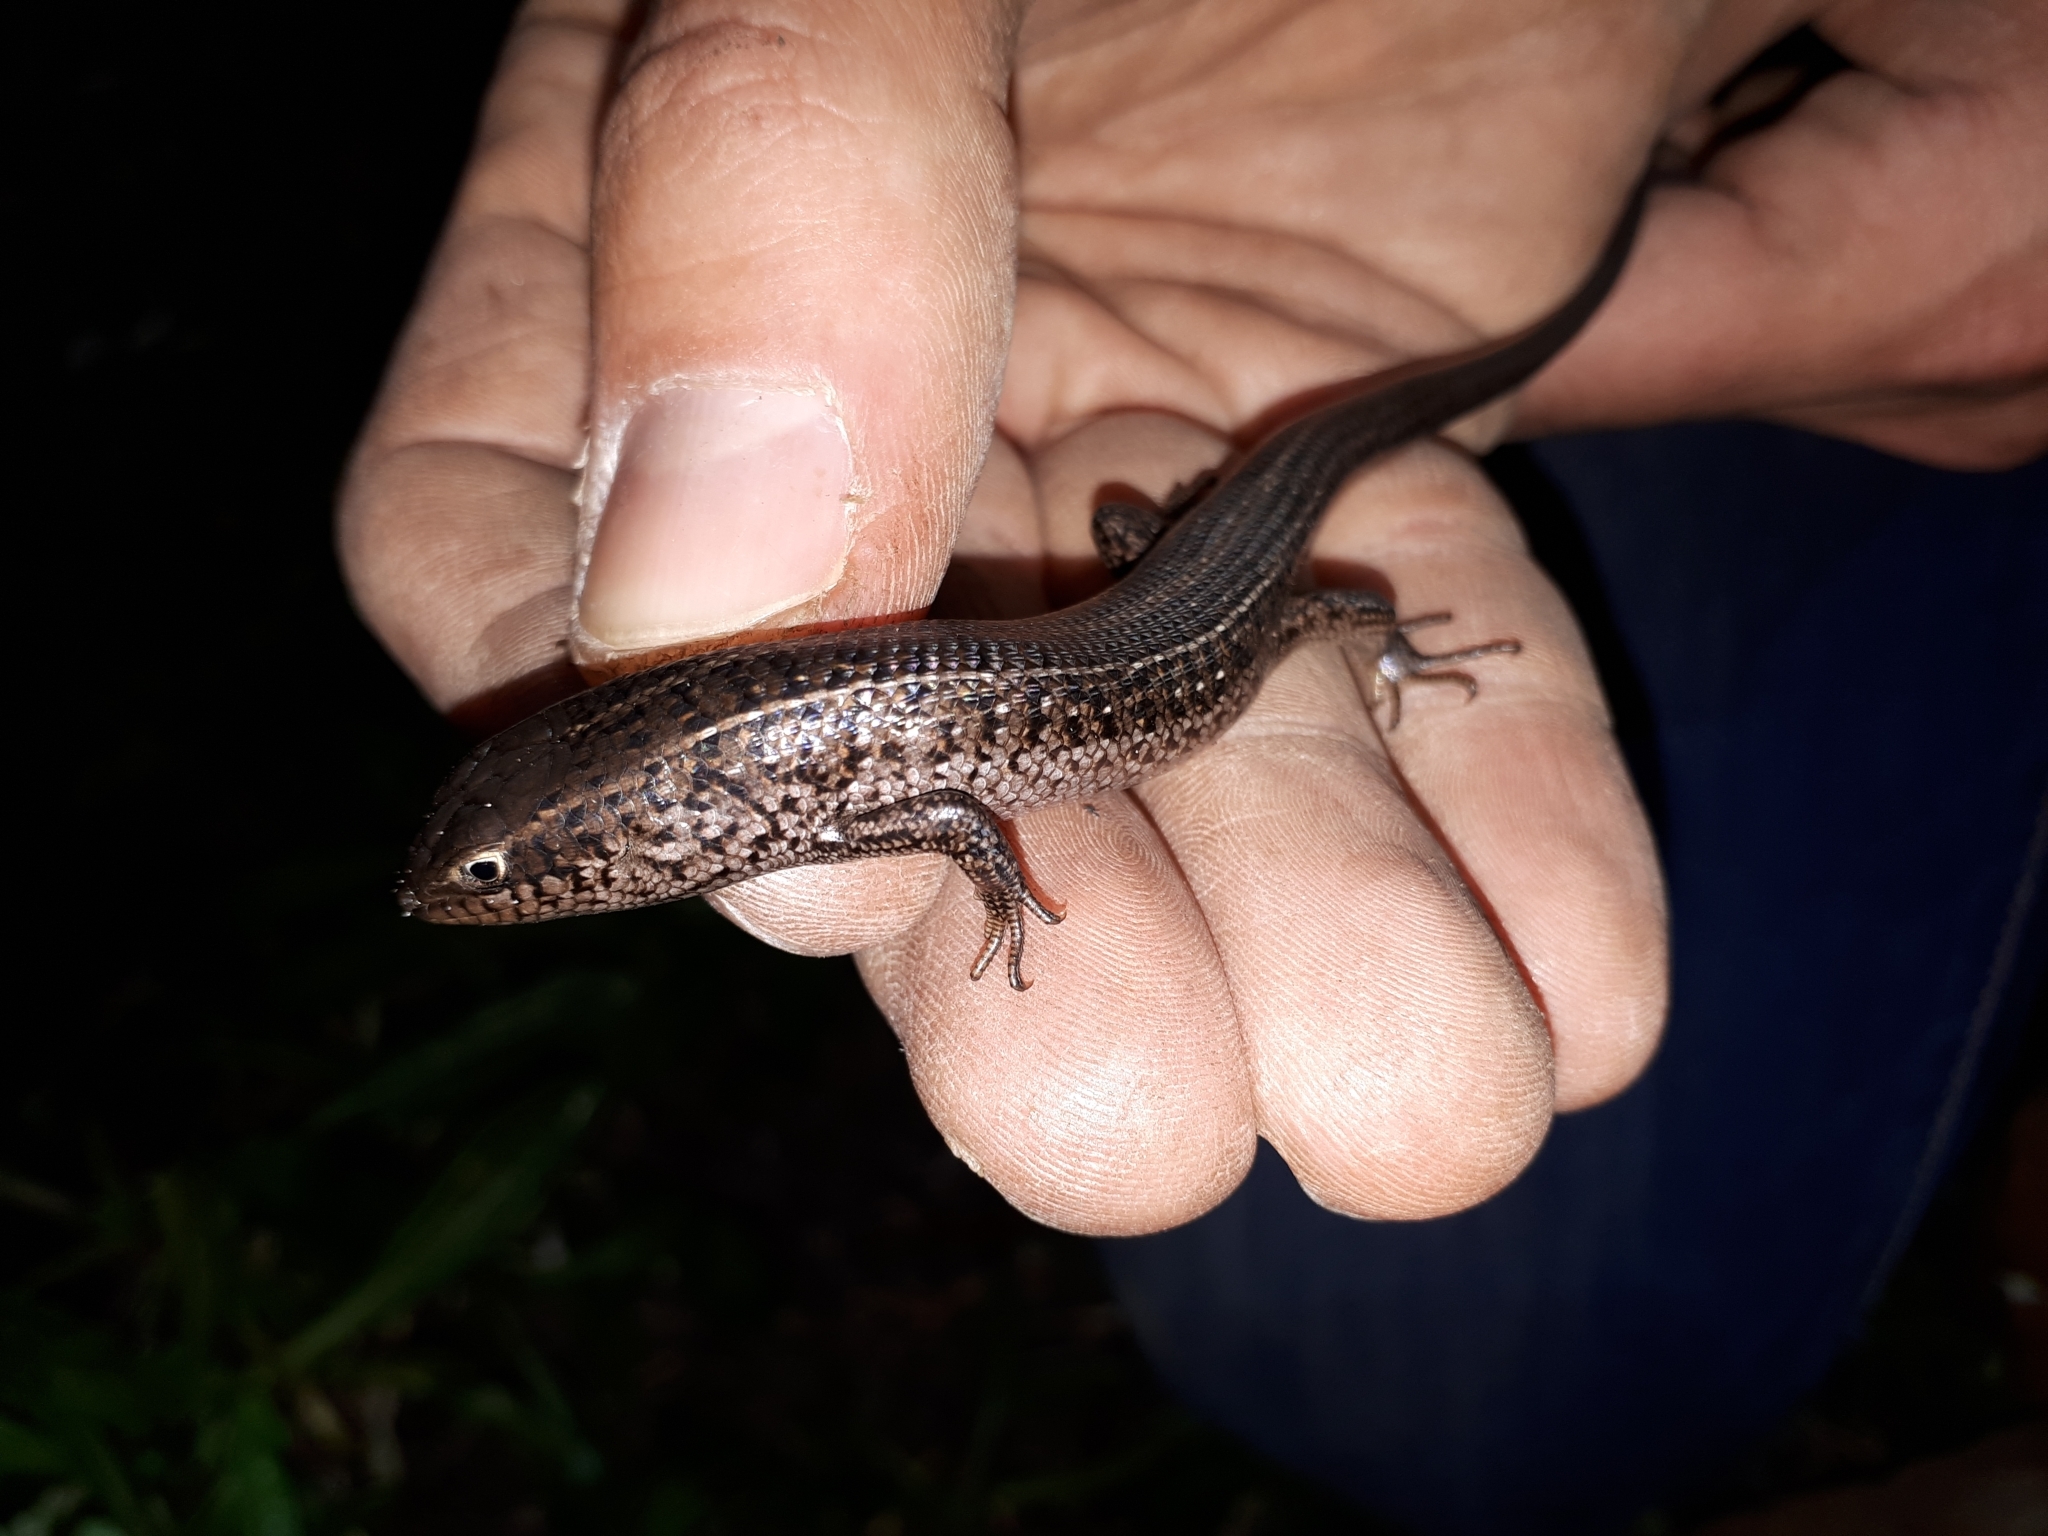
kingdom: Animalia
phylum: Chordata
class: Squamata
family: Scincidae
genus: Trachylepis
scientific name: Trachylepis capensis
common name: Cape skink
